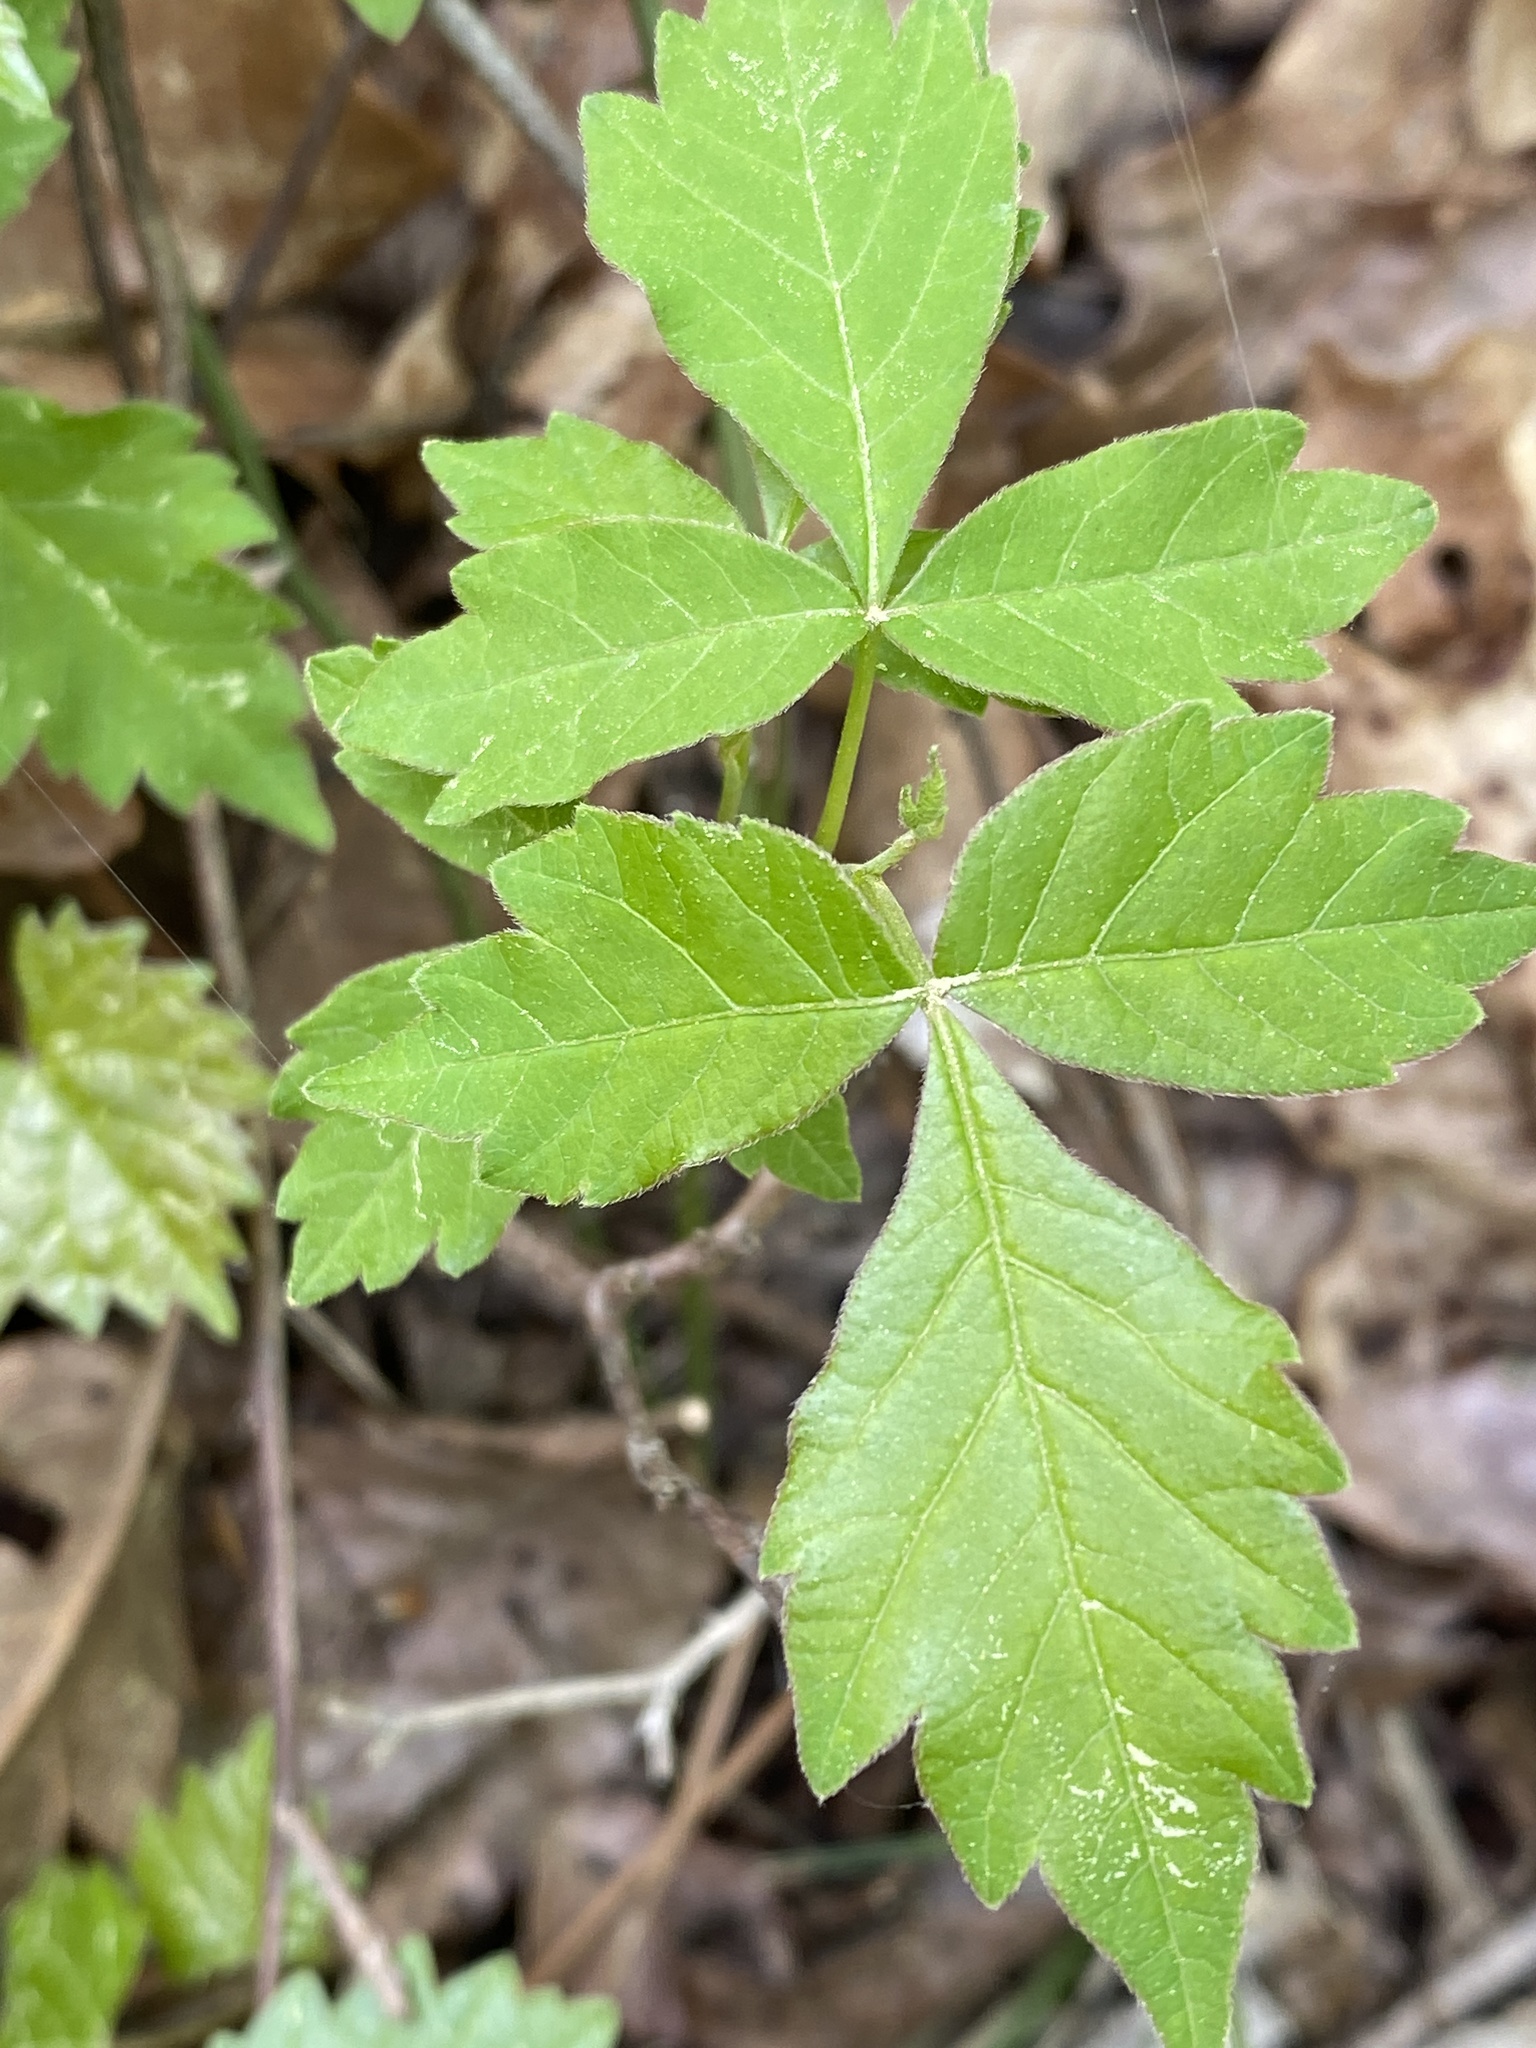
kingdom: Plantae
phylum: Tracheophyta
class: Magnoliopsida
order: Sapindales
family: Anacardiaceae
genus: Rhus
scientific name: Rhus aromatica
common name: Aromatic sumac
